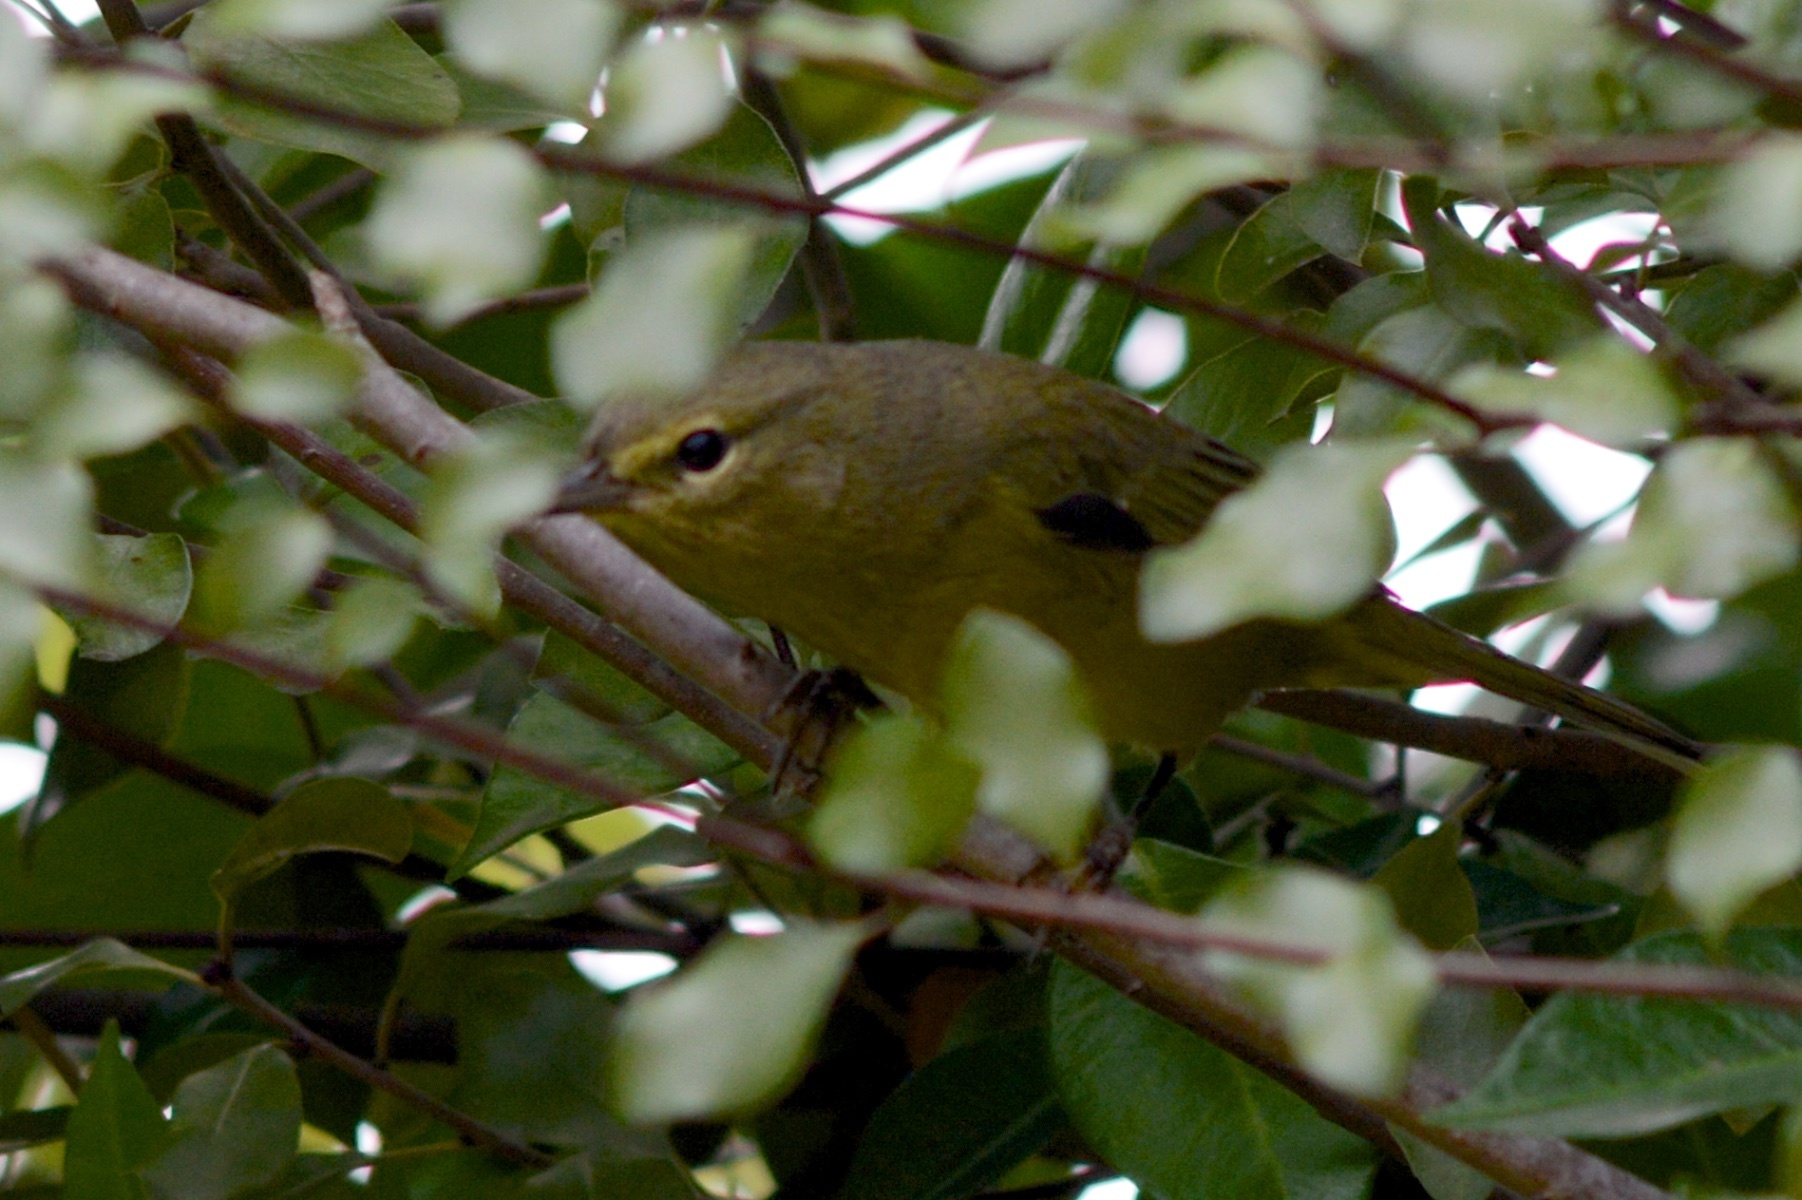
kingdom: Animalia
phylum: Chordata
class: Aves
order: Passeriformes
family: Parulidae
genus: Leiothlypis
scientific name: Leiothlypis celata
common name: Orange-crowned warbler
